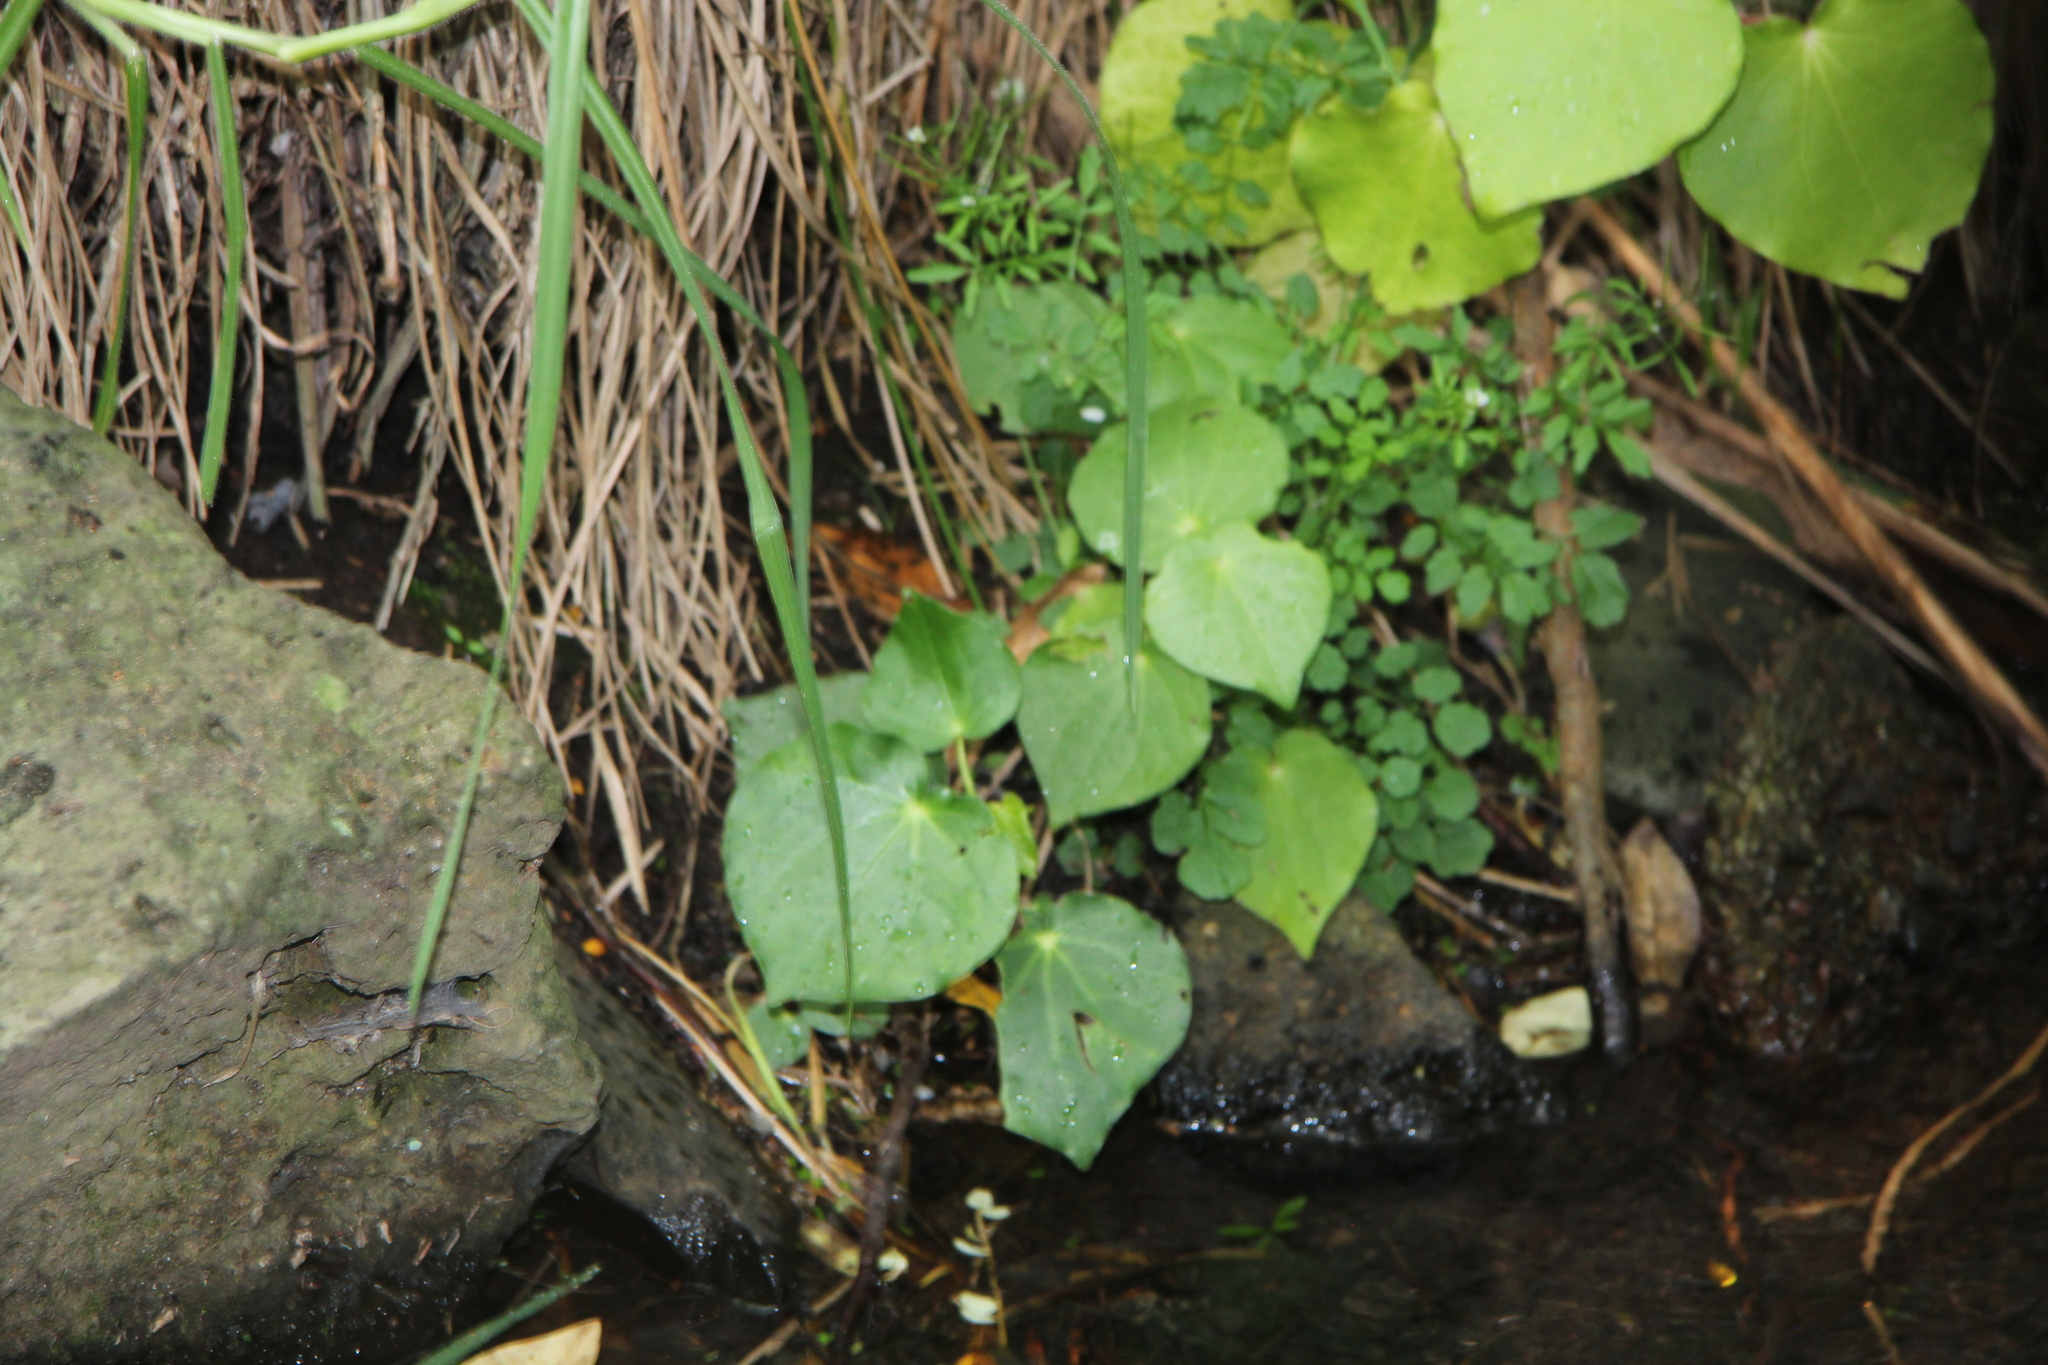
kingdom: Plantae
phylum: Tracheophyta
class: Magnoliopsida
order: Piperales
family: Piperaceae
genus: Macropiper
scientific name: Macropiper excelsum
